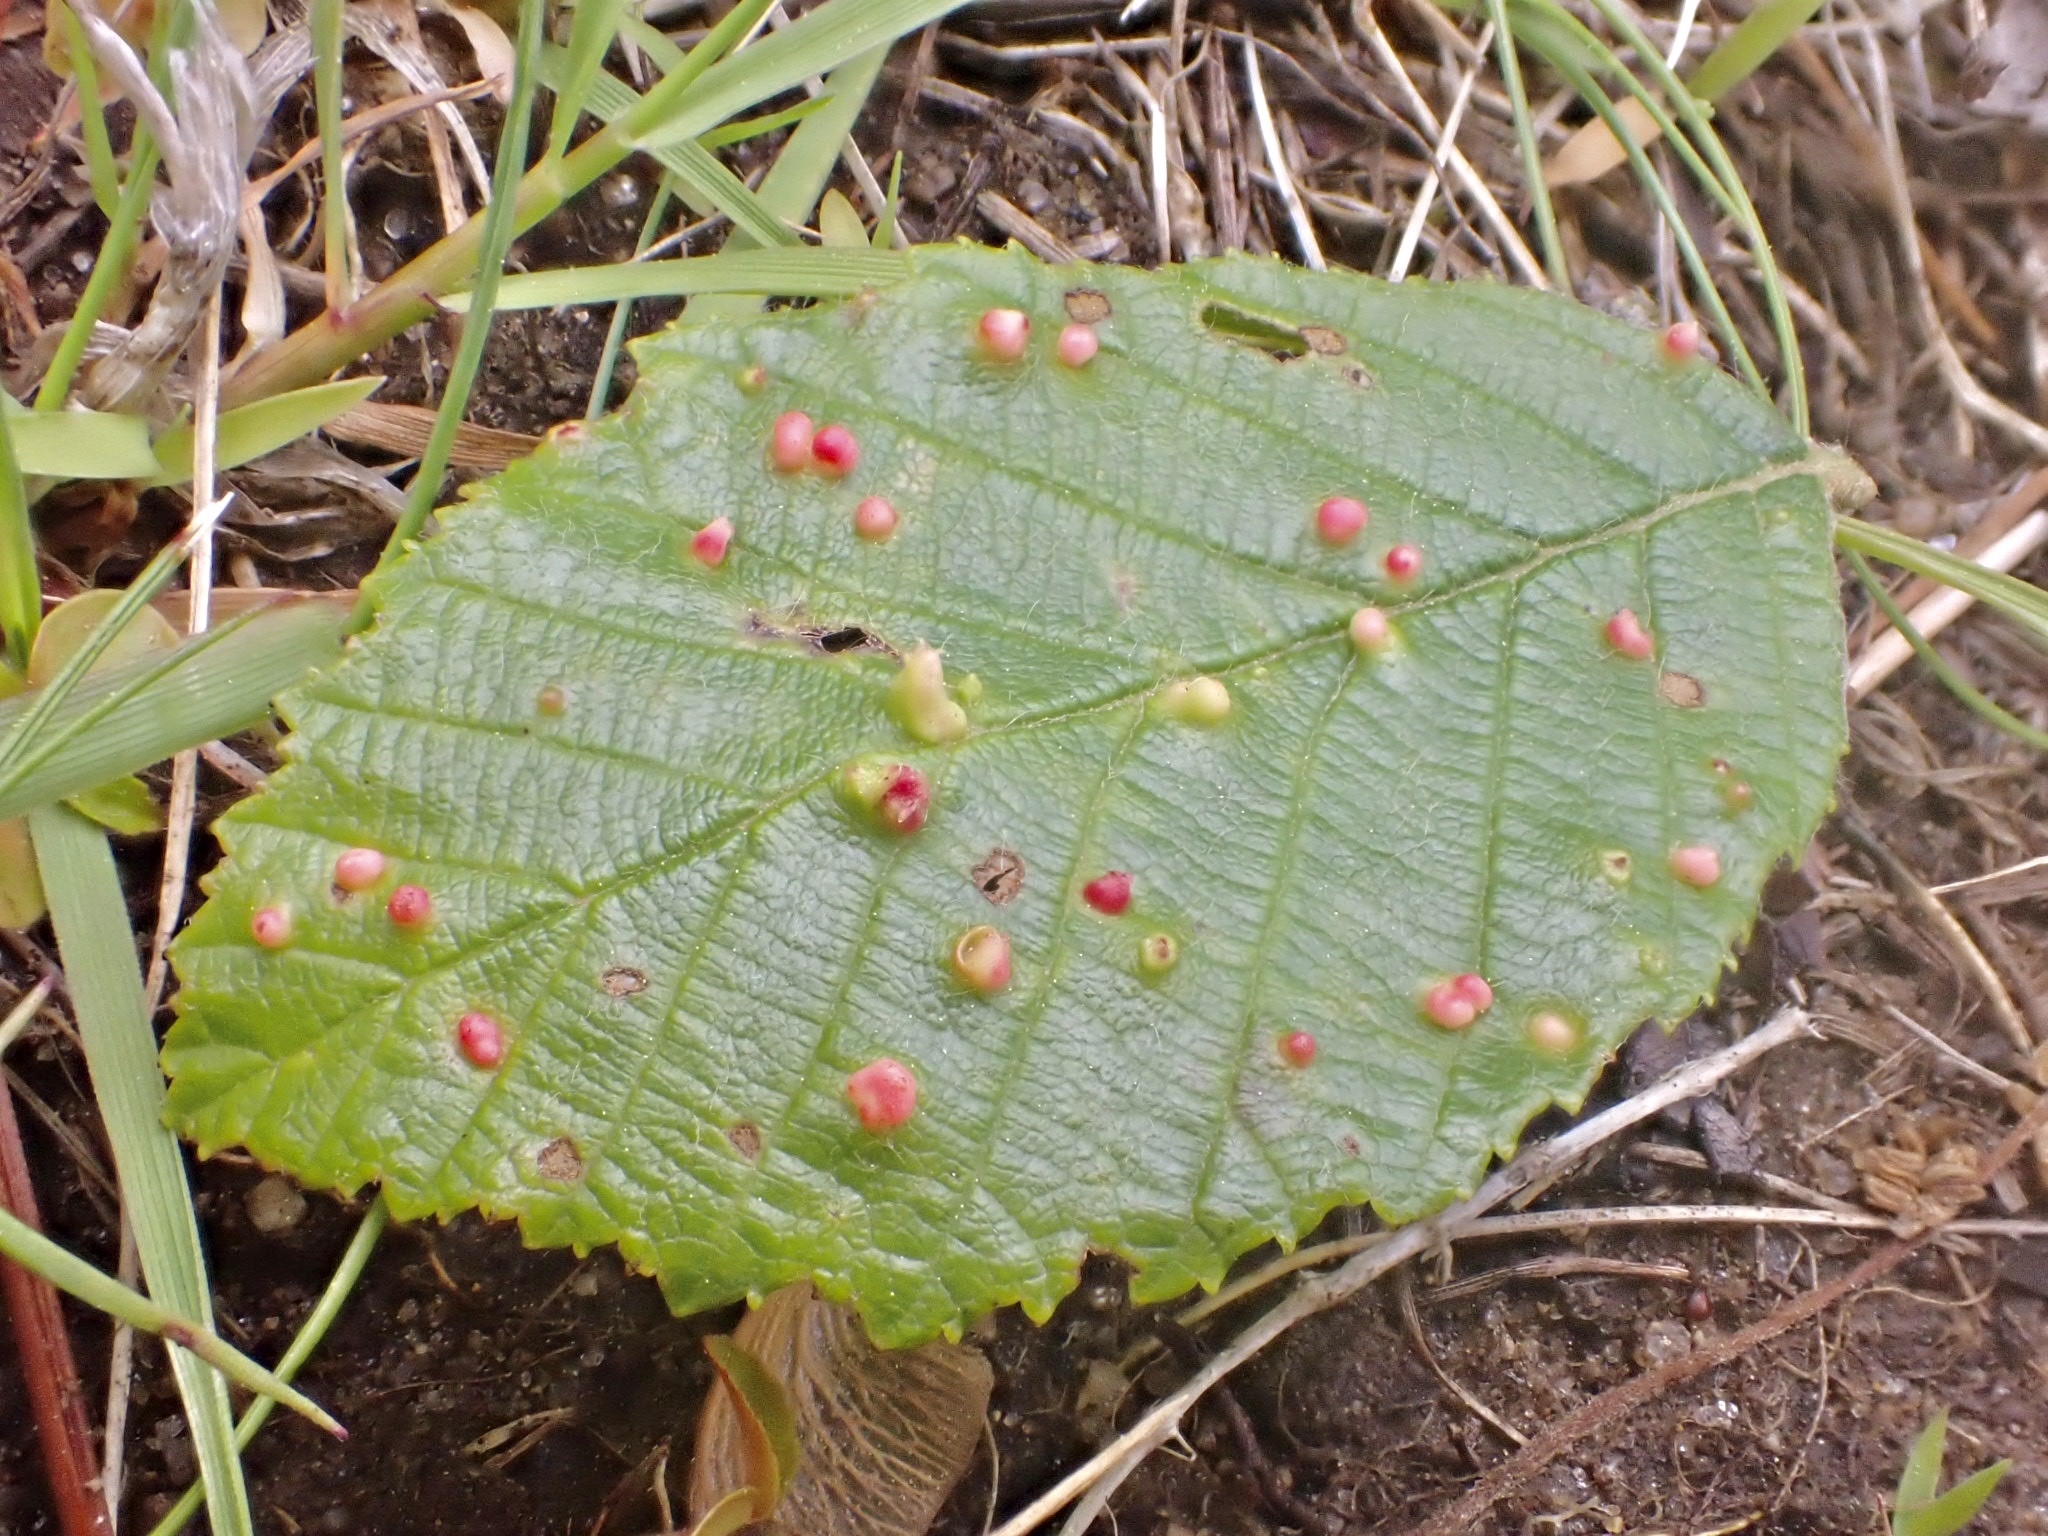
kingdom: Animalia
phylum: Arthropoda
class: Arachnida
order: Trombidiformes
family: Eriophyidae
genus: Eriophyes
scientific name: Eriophyes laevis
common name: Alder leaf gall mite
